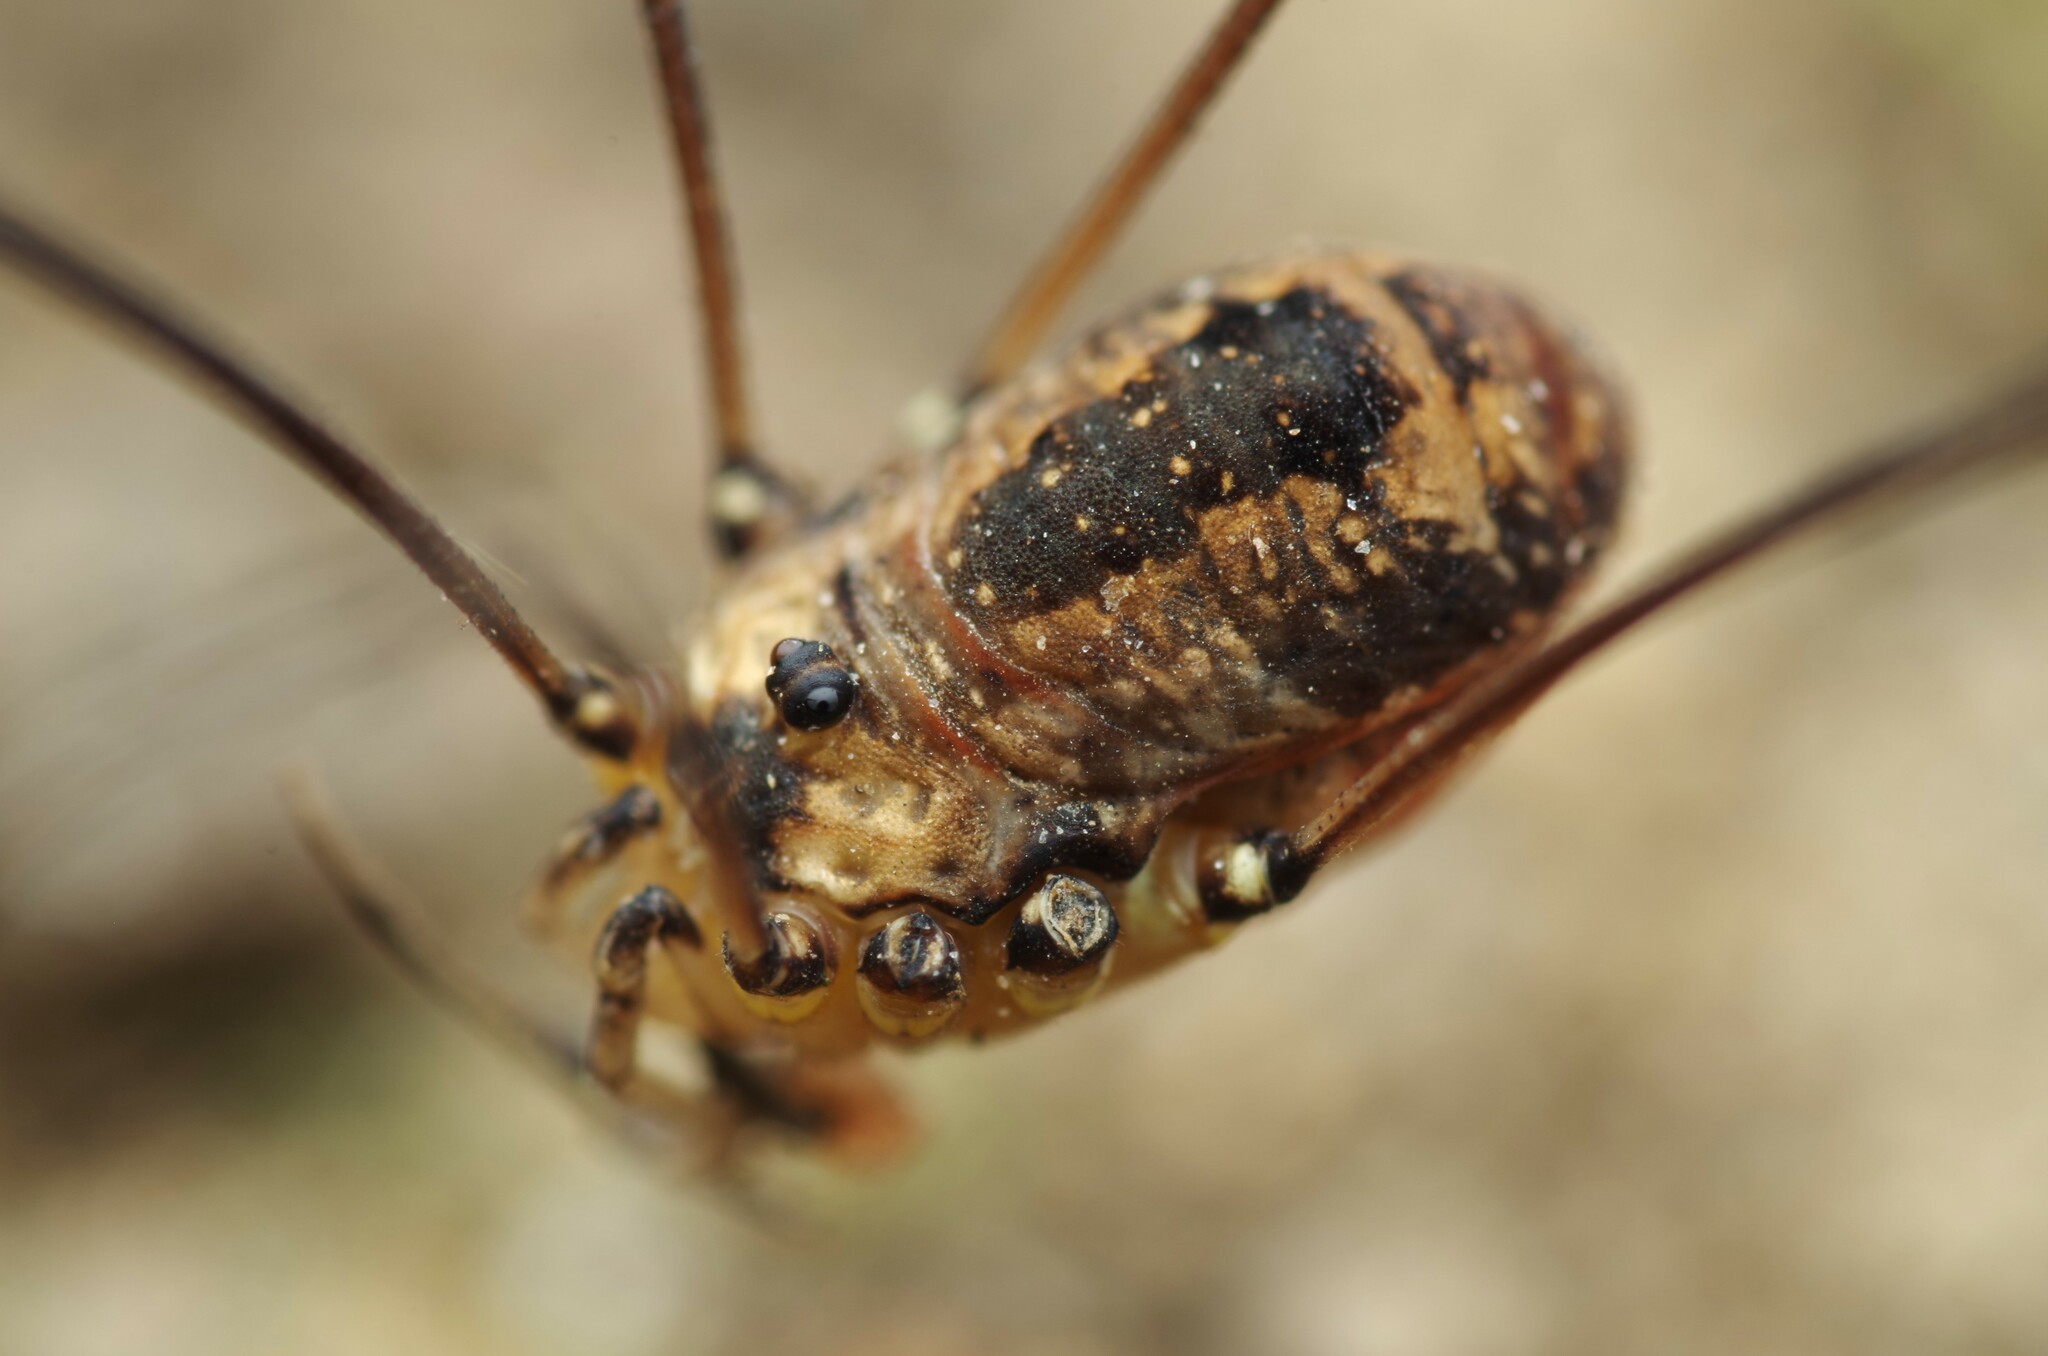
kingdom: Animalia
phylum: Arthropoda
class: Arachnida
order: Opiliones
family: Sclerosomatidae
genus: Leiobunum
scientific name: Leiobunum rotundum
